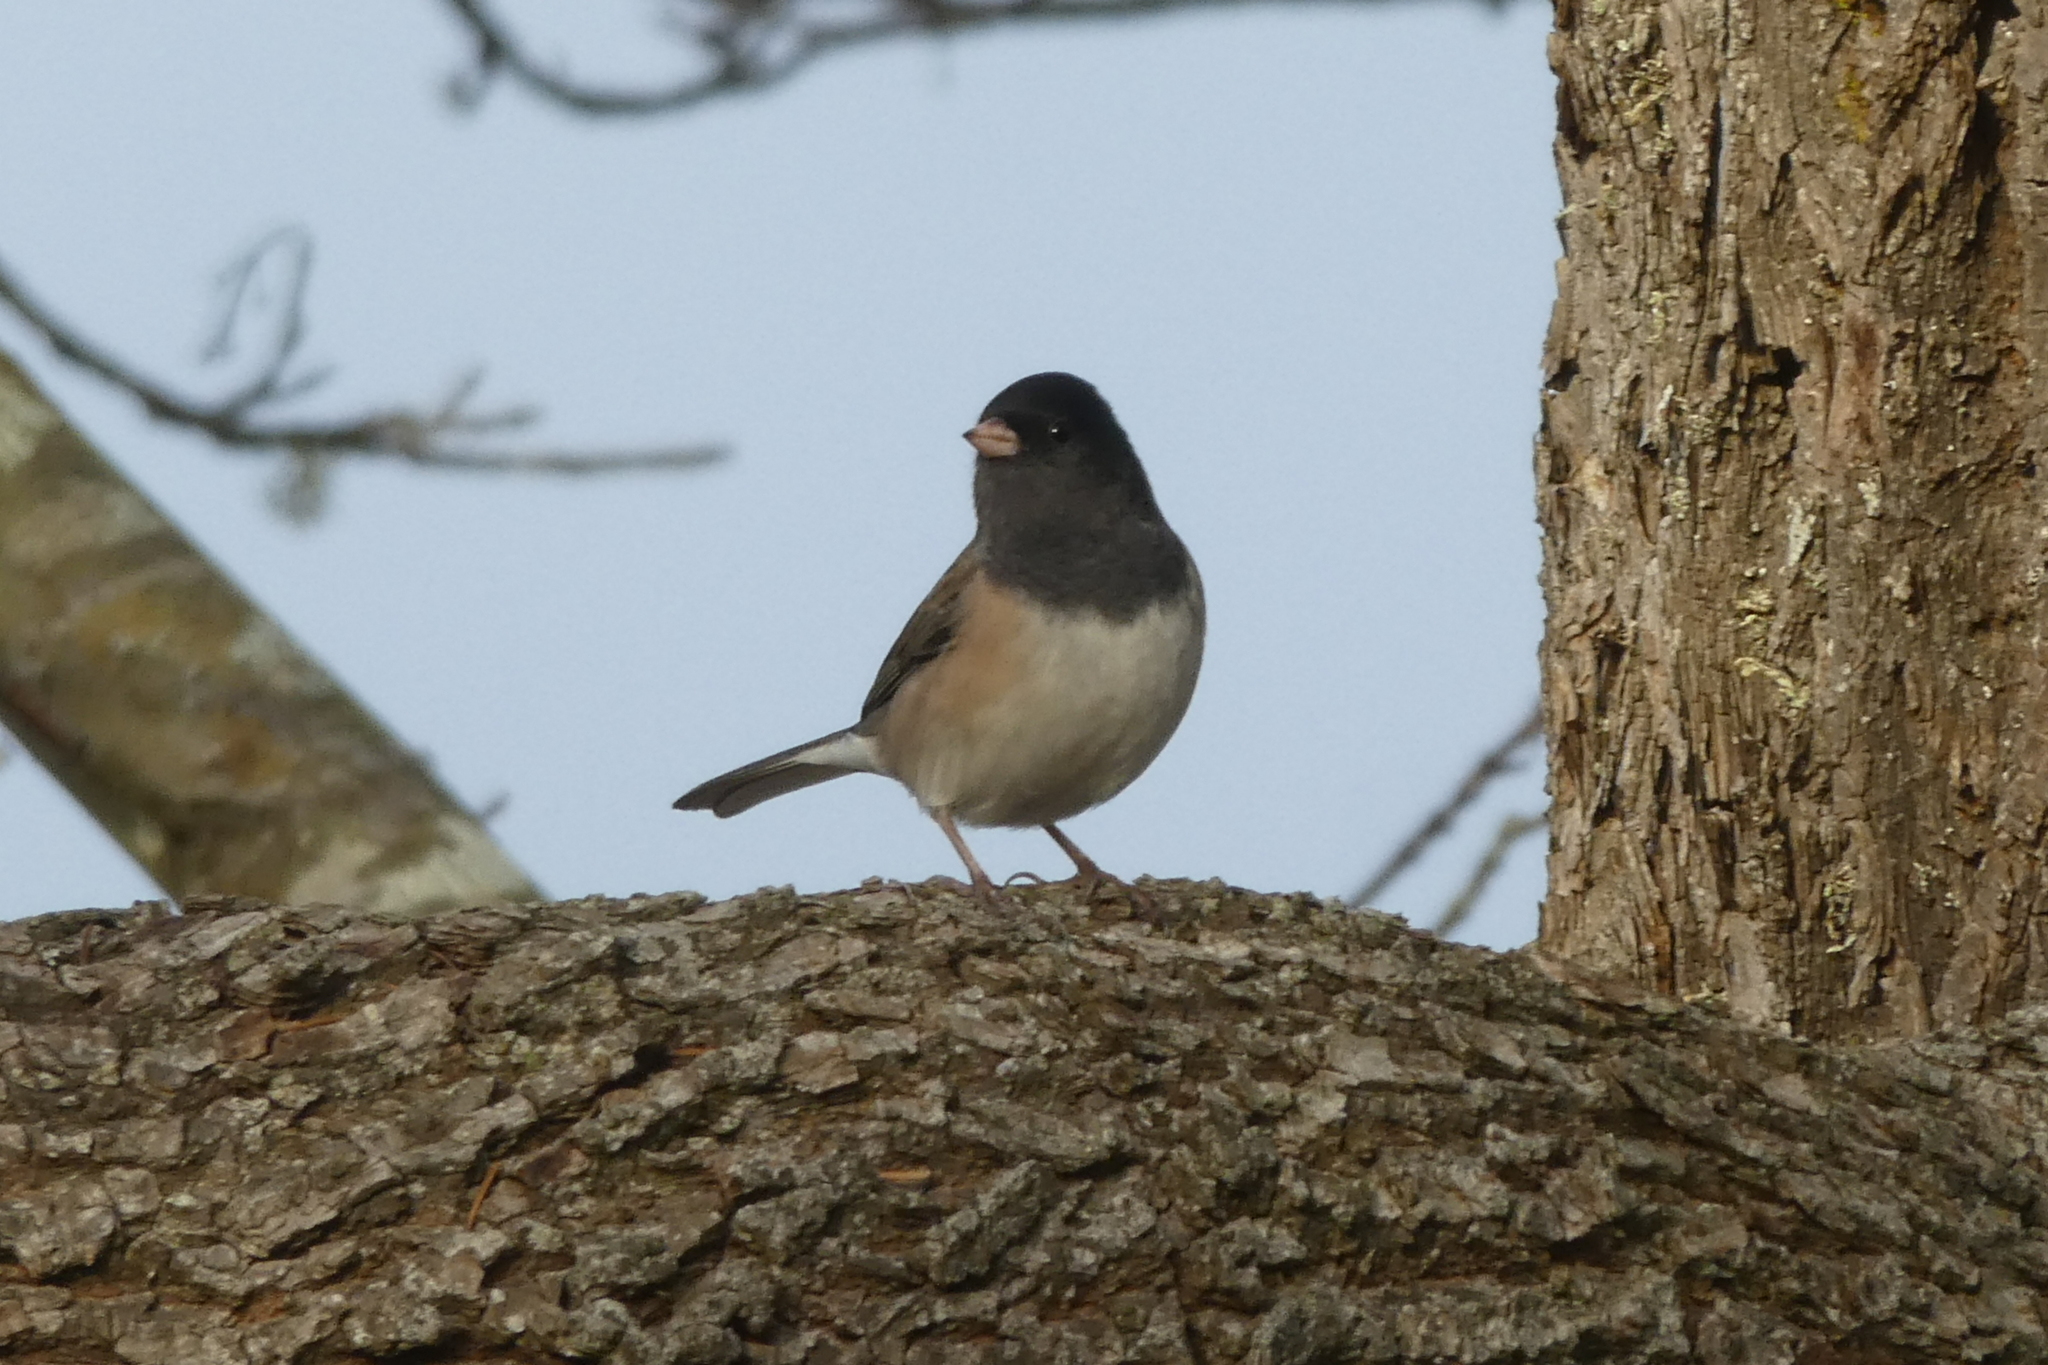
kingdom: Animalia
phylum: Chordata
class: Aves
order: Passeriformes
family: Passerellidae
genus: Junco
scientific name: Junco hyemalis
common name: Dark-eyed junco
